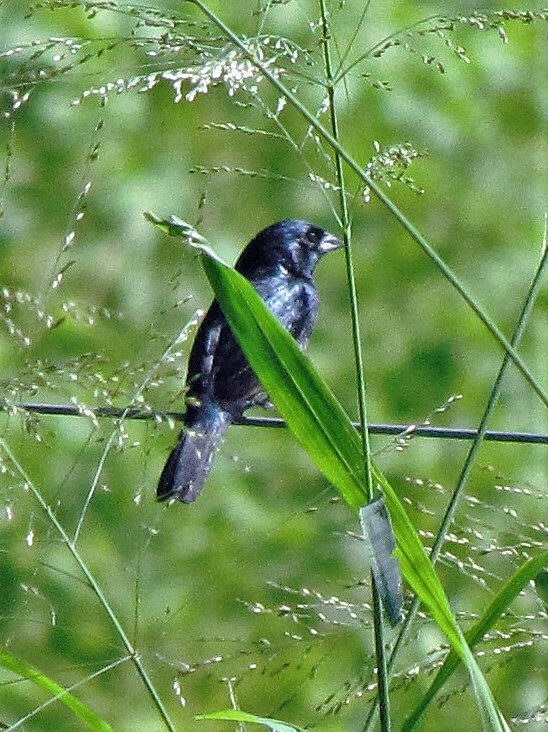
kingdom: Animalia
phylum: Chordata
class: Aves
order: Passeriformes
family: Thraupidae
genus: Volatinia
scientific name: Volatinia jacarina
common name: Blue-black grassquit
